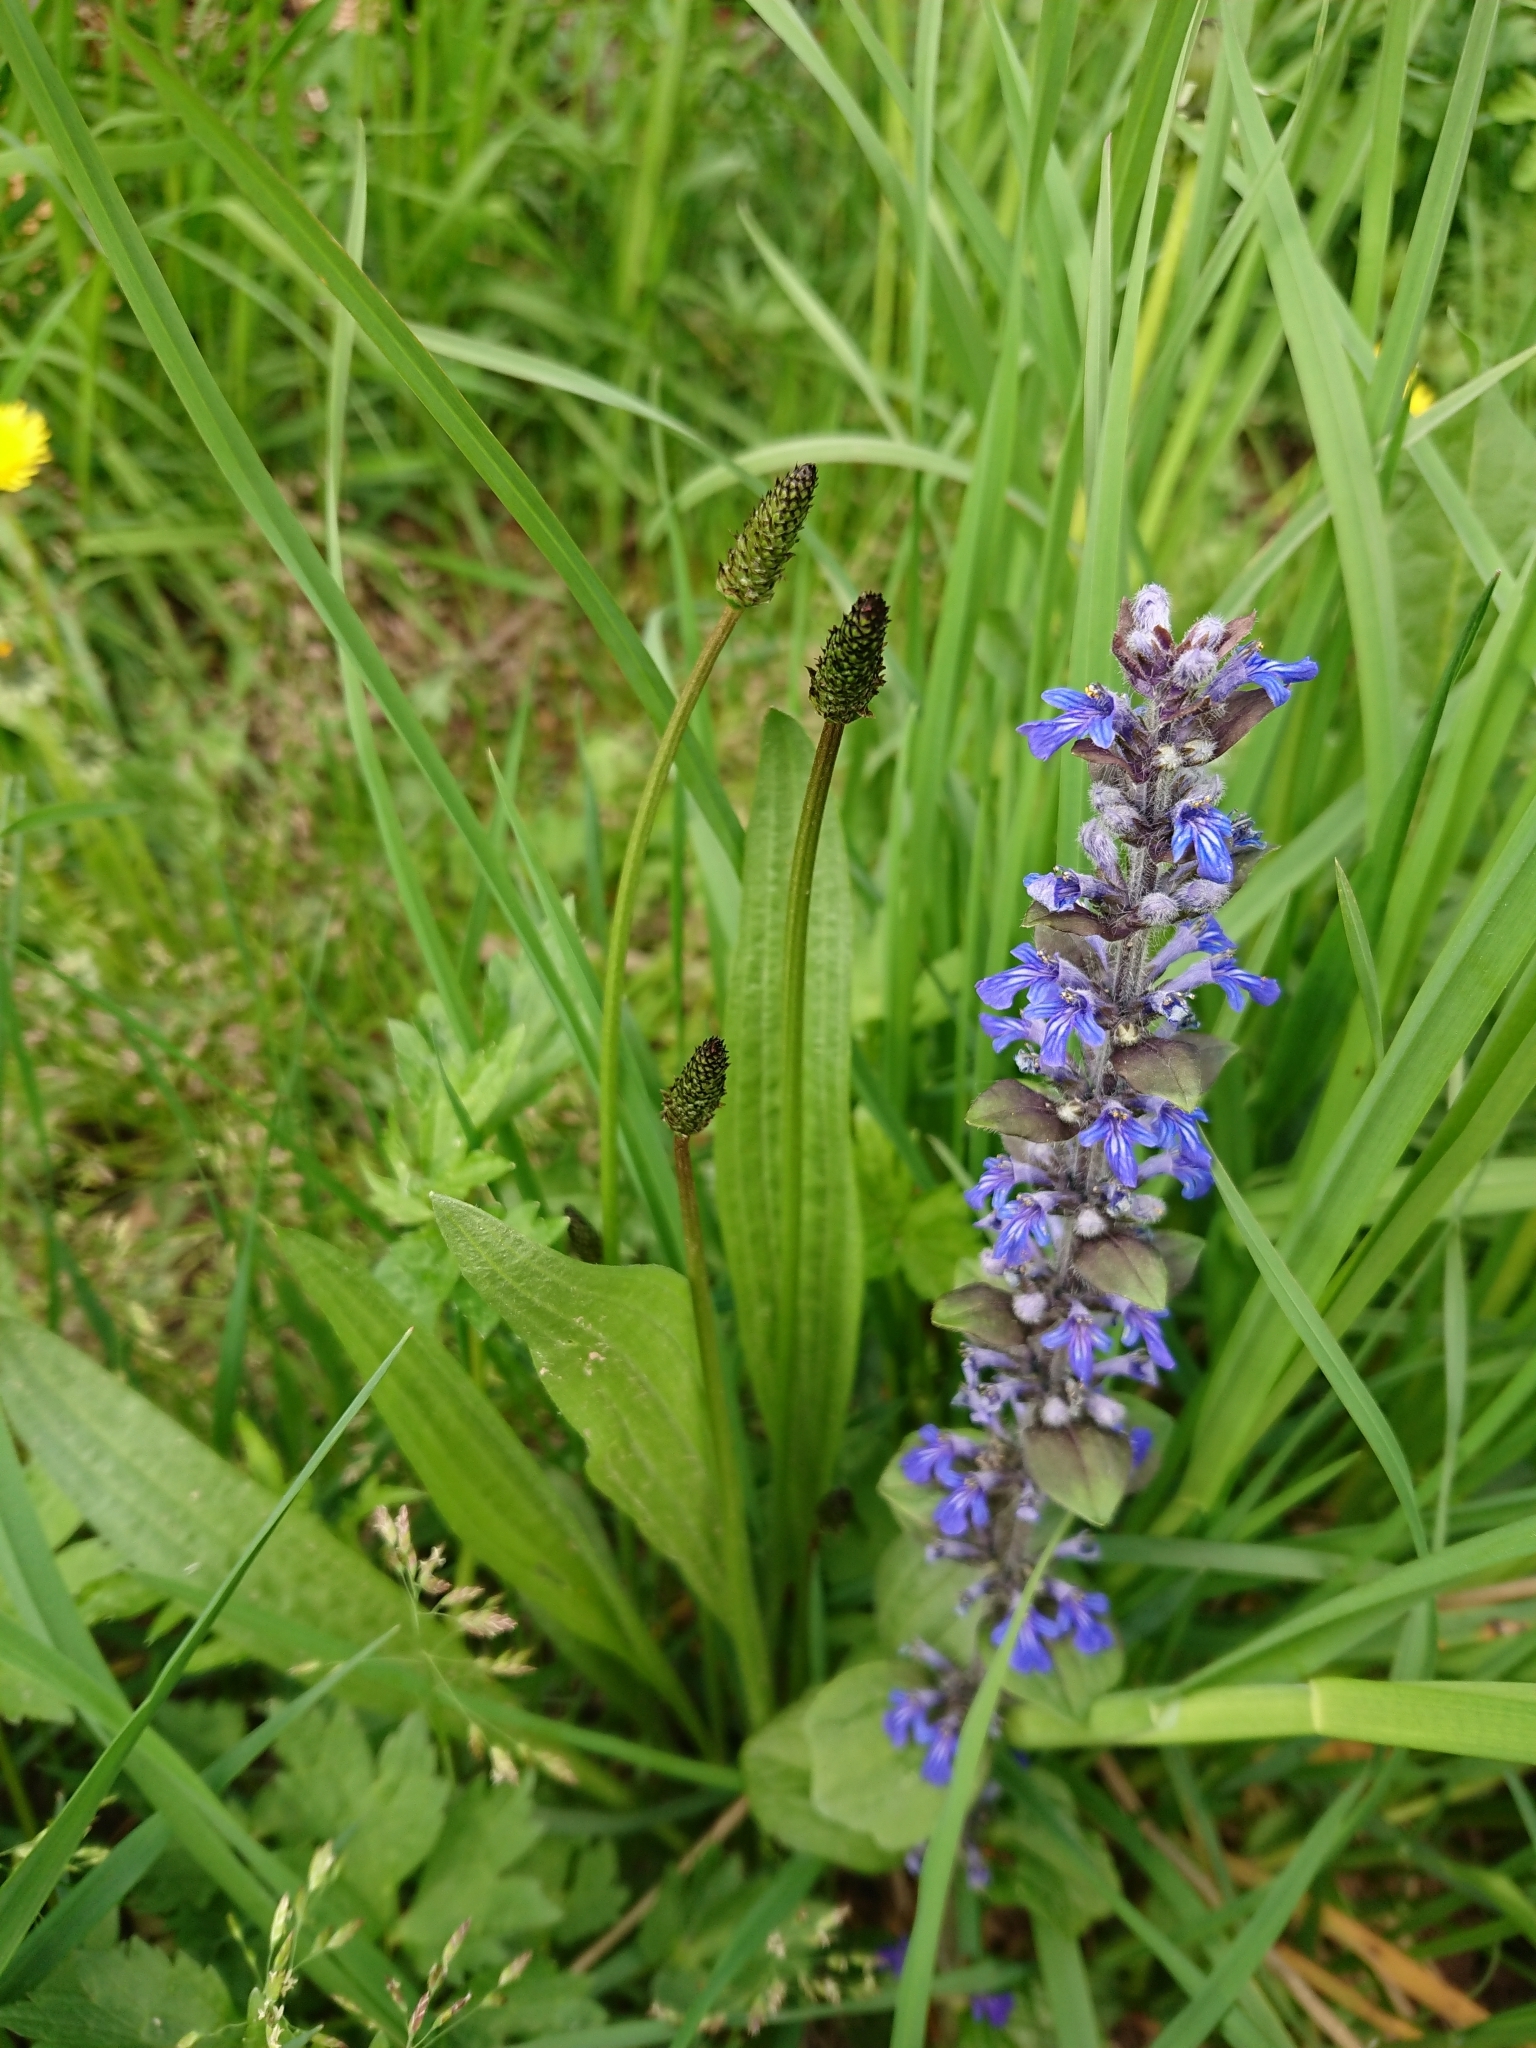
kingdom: Plantae
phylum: Tracheophyta
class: Magnoliopsida
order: Lamiales
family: Plantaginaceae
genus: Plantago
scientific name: Plantago lanceolata
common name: Ribwort plantain
